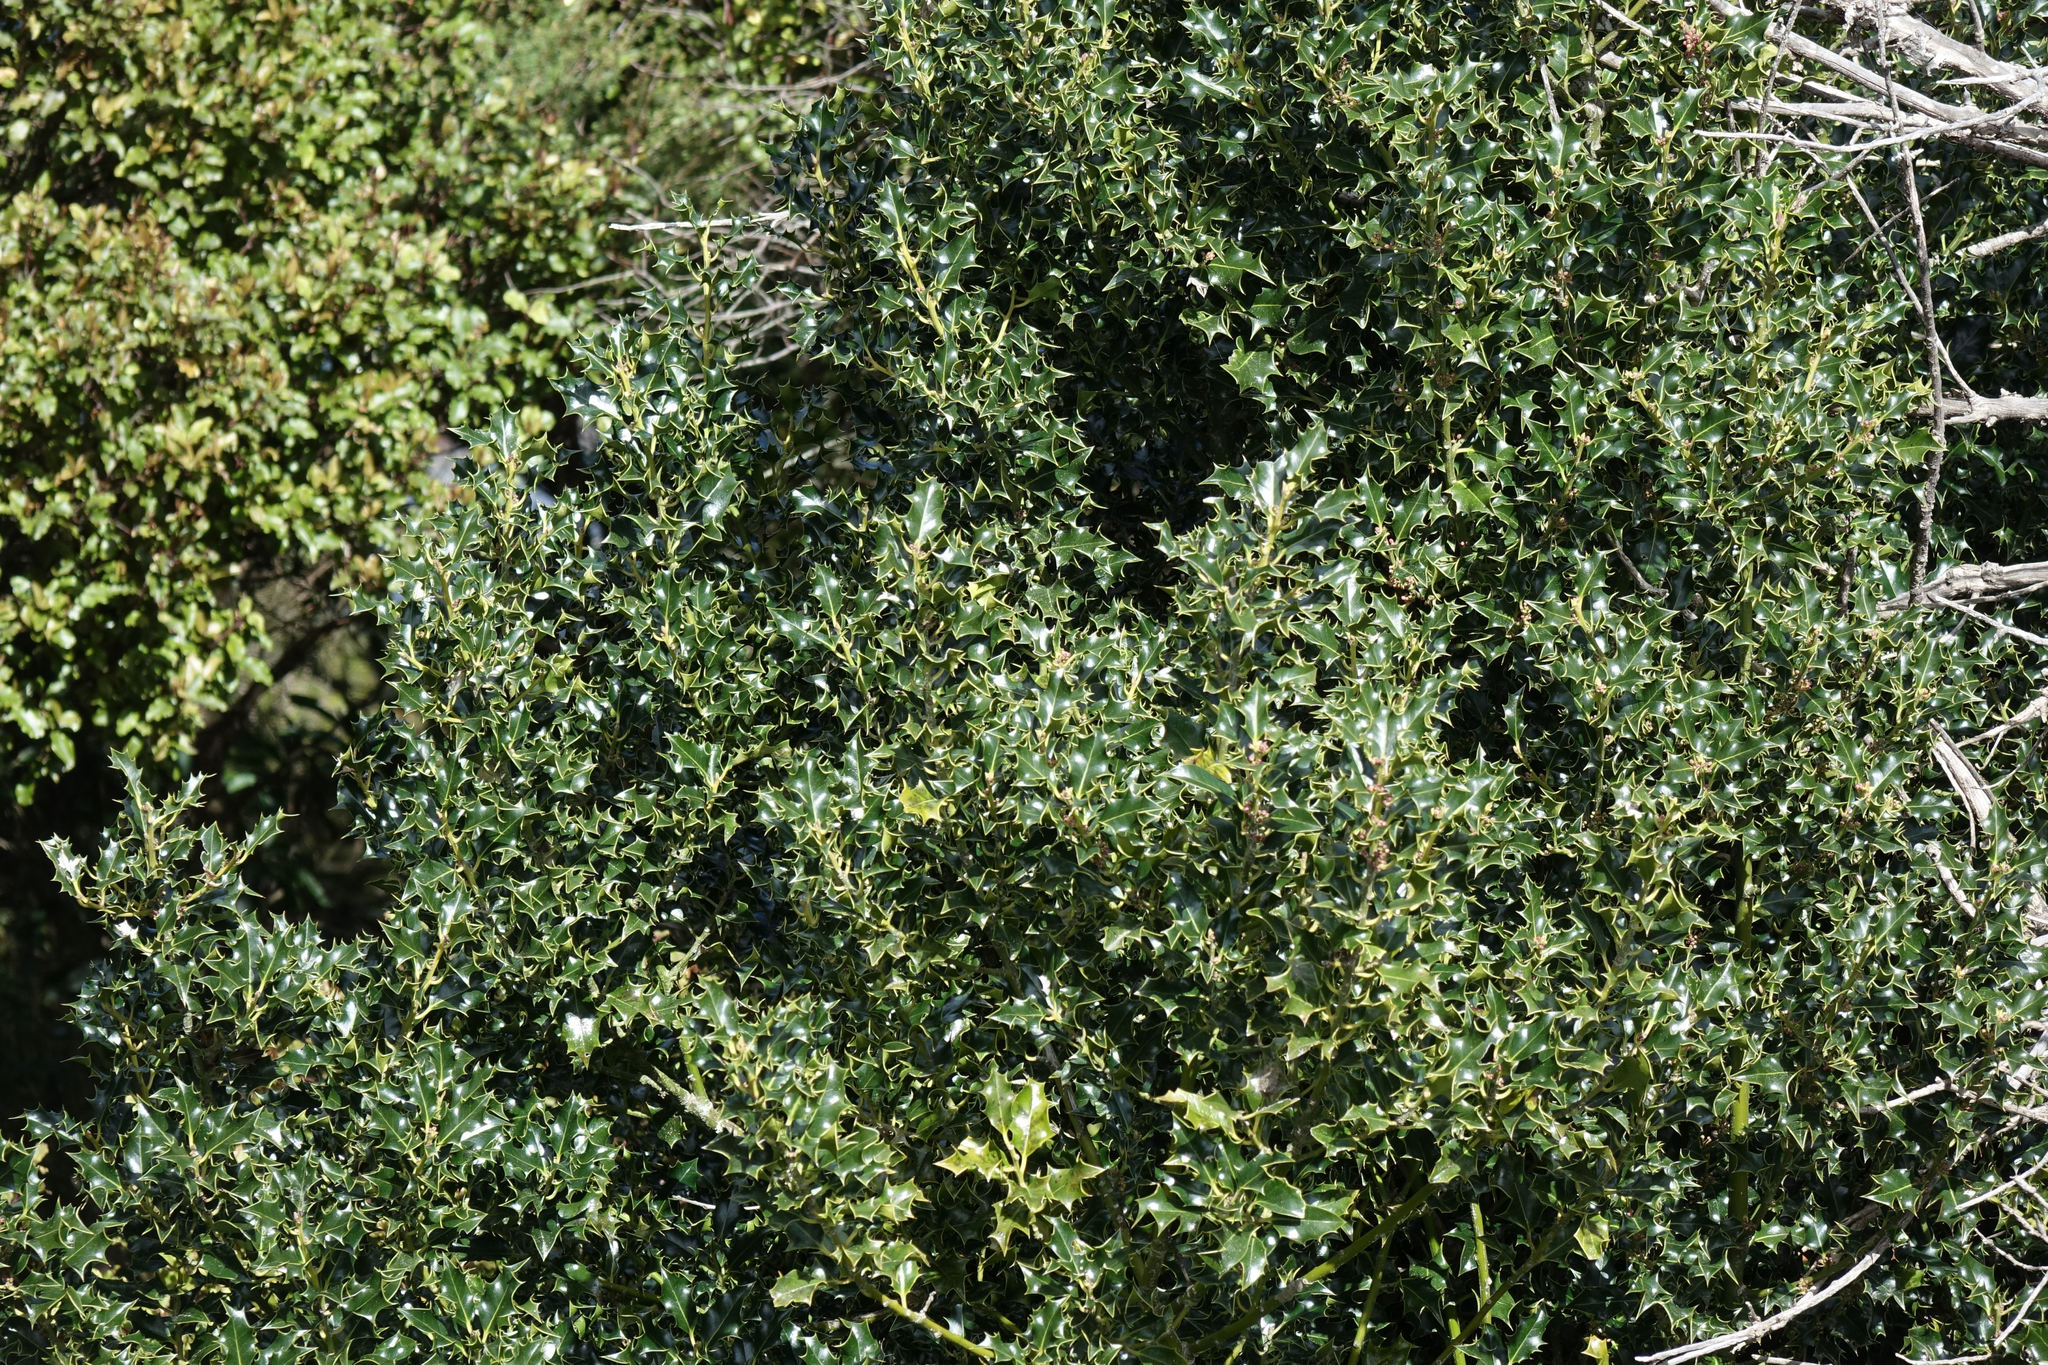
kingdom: Plantae
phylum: Tracheophyta
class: Magnoliopsida
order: Aquifoliales
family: Aquifoliaceae
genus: Ilex
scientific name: Ilex aquifolium
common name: English holly
